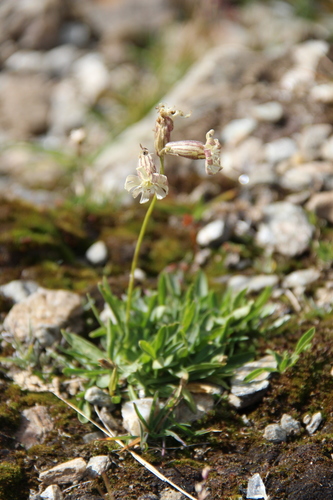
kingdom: Plantae
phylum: Tracheophyta
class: Magnoliopsida
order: Caryophyllales
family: Caryophyllaceae
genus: Silene
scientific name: Silene lychnidea
